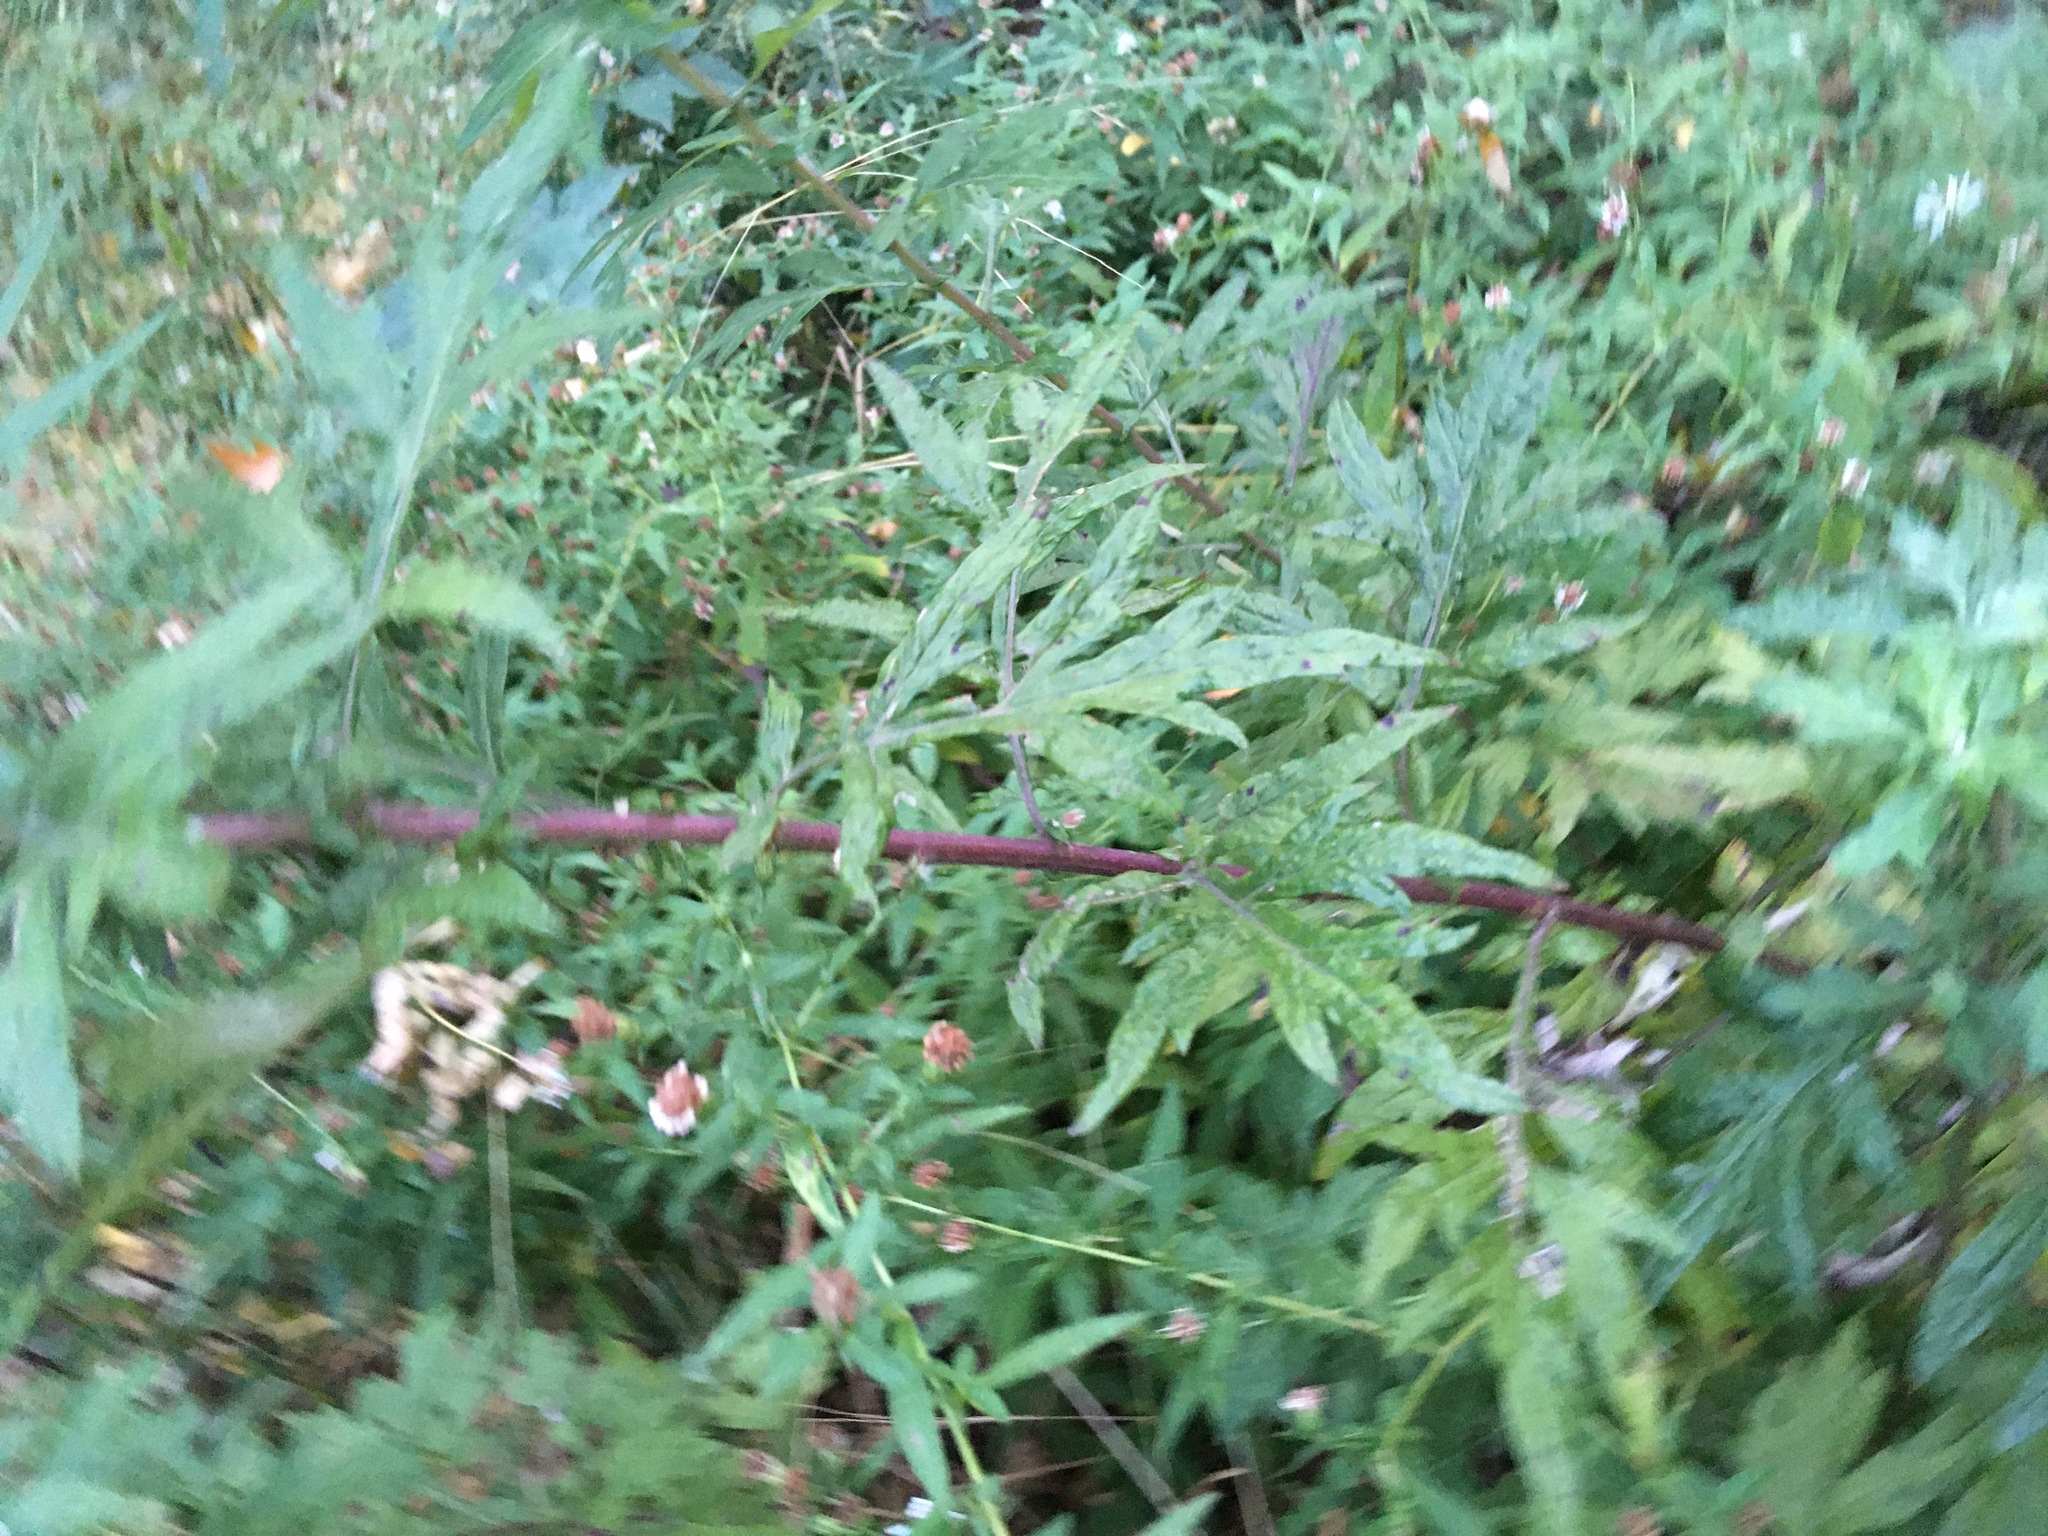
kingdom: Plantae
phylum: Tracheophyta
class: Magnoliopsida
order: Asterales
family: Asteraceae
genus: Artemisia
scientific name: Artemisia vulgaris
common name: Mugwort
